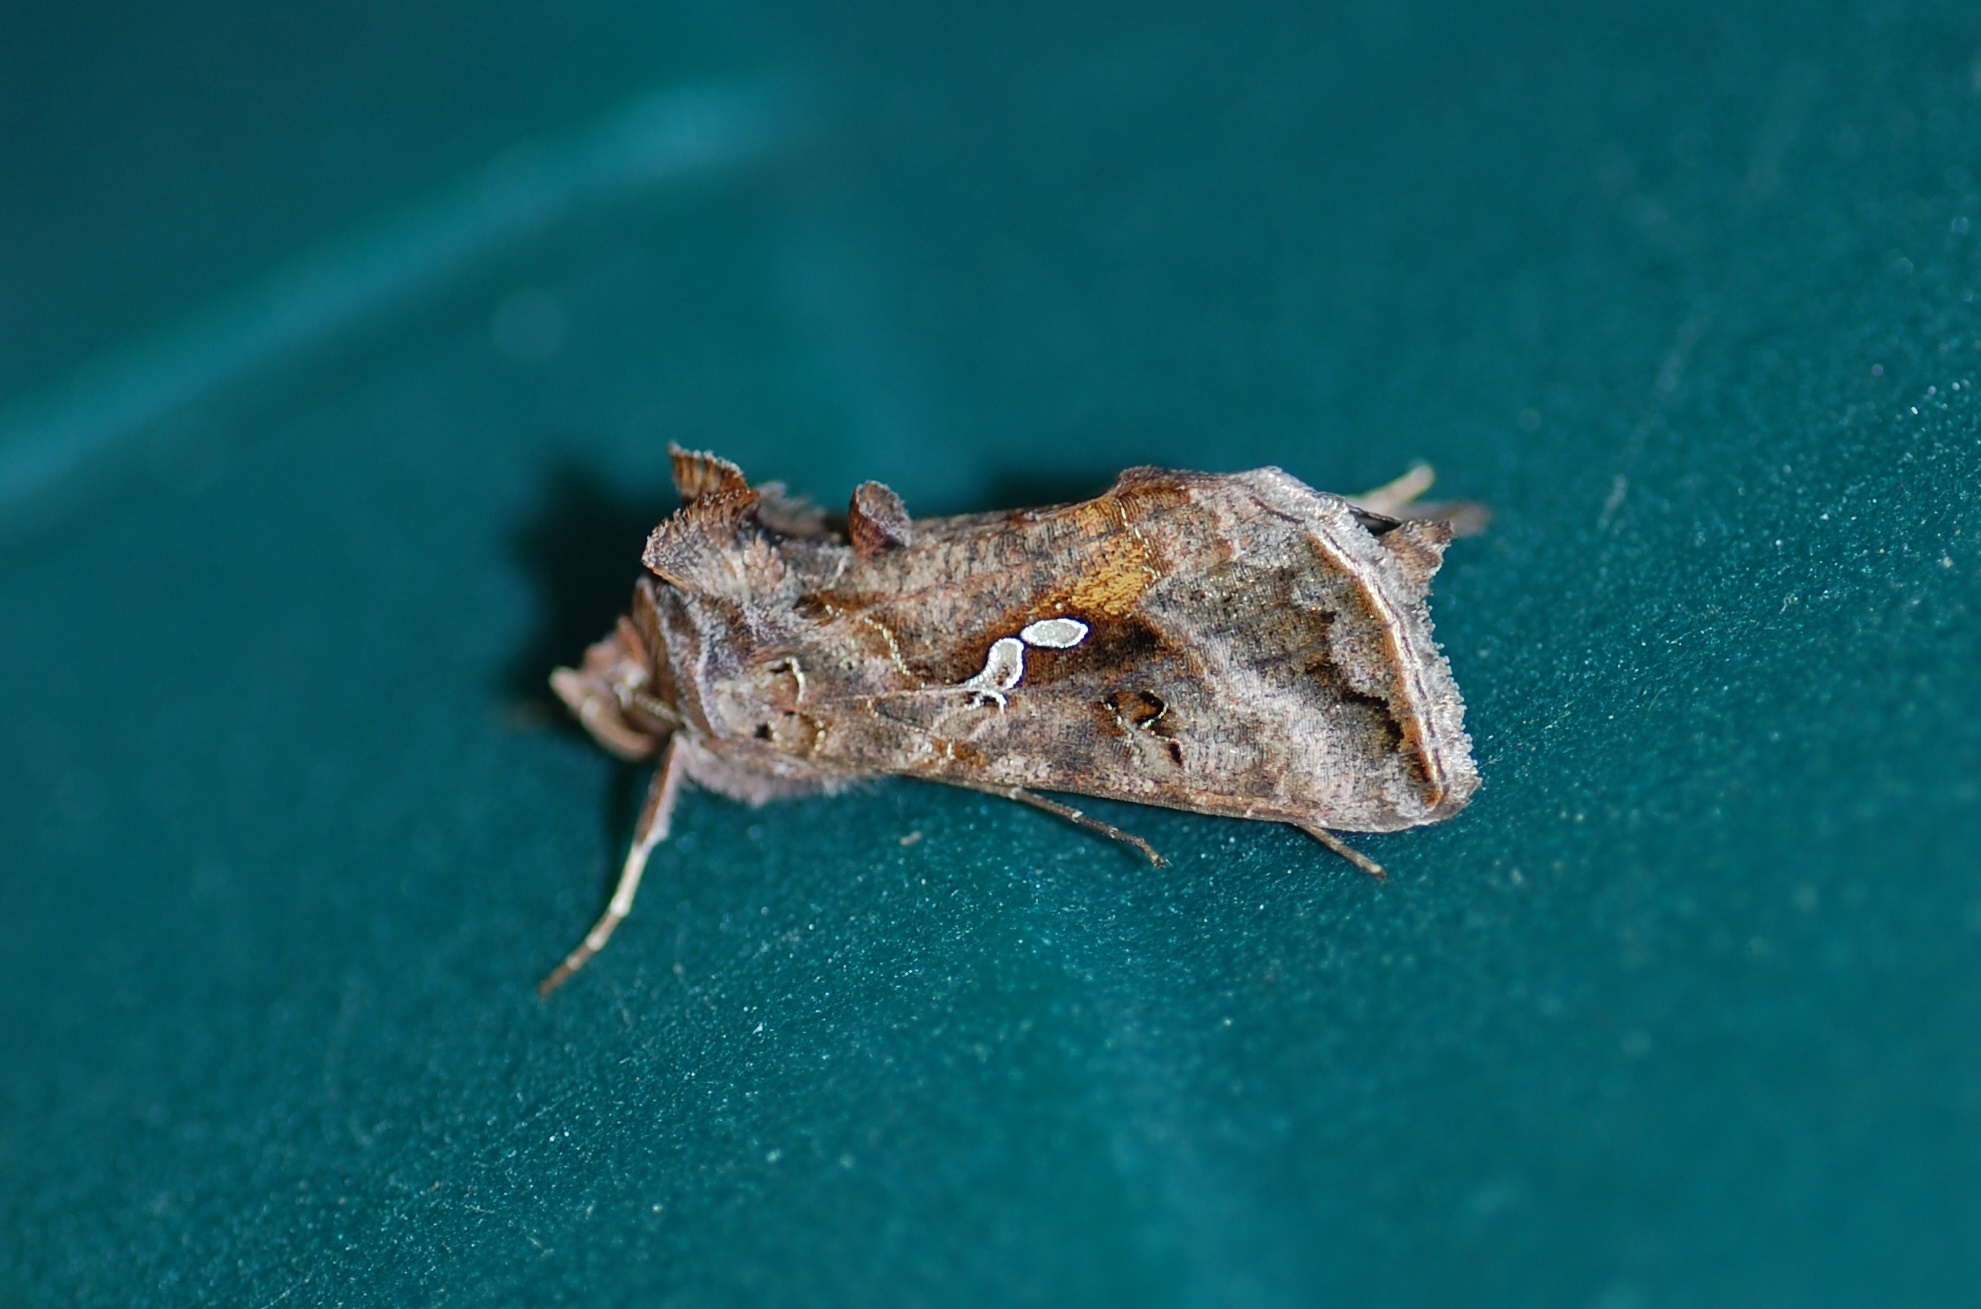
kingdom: Animalia
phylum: Arthropoda
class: Insecta
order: Lepidoptera
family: Noctuidae
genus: Autographa
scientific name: Autographa precationis
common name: Common looper moth
